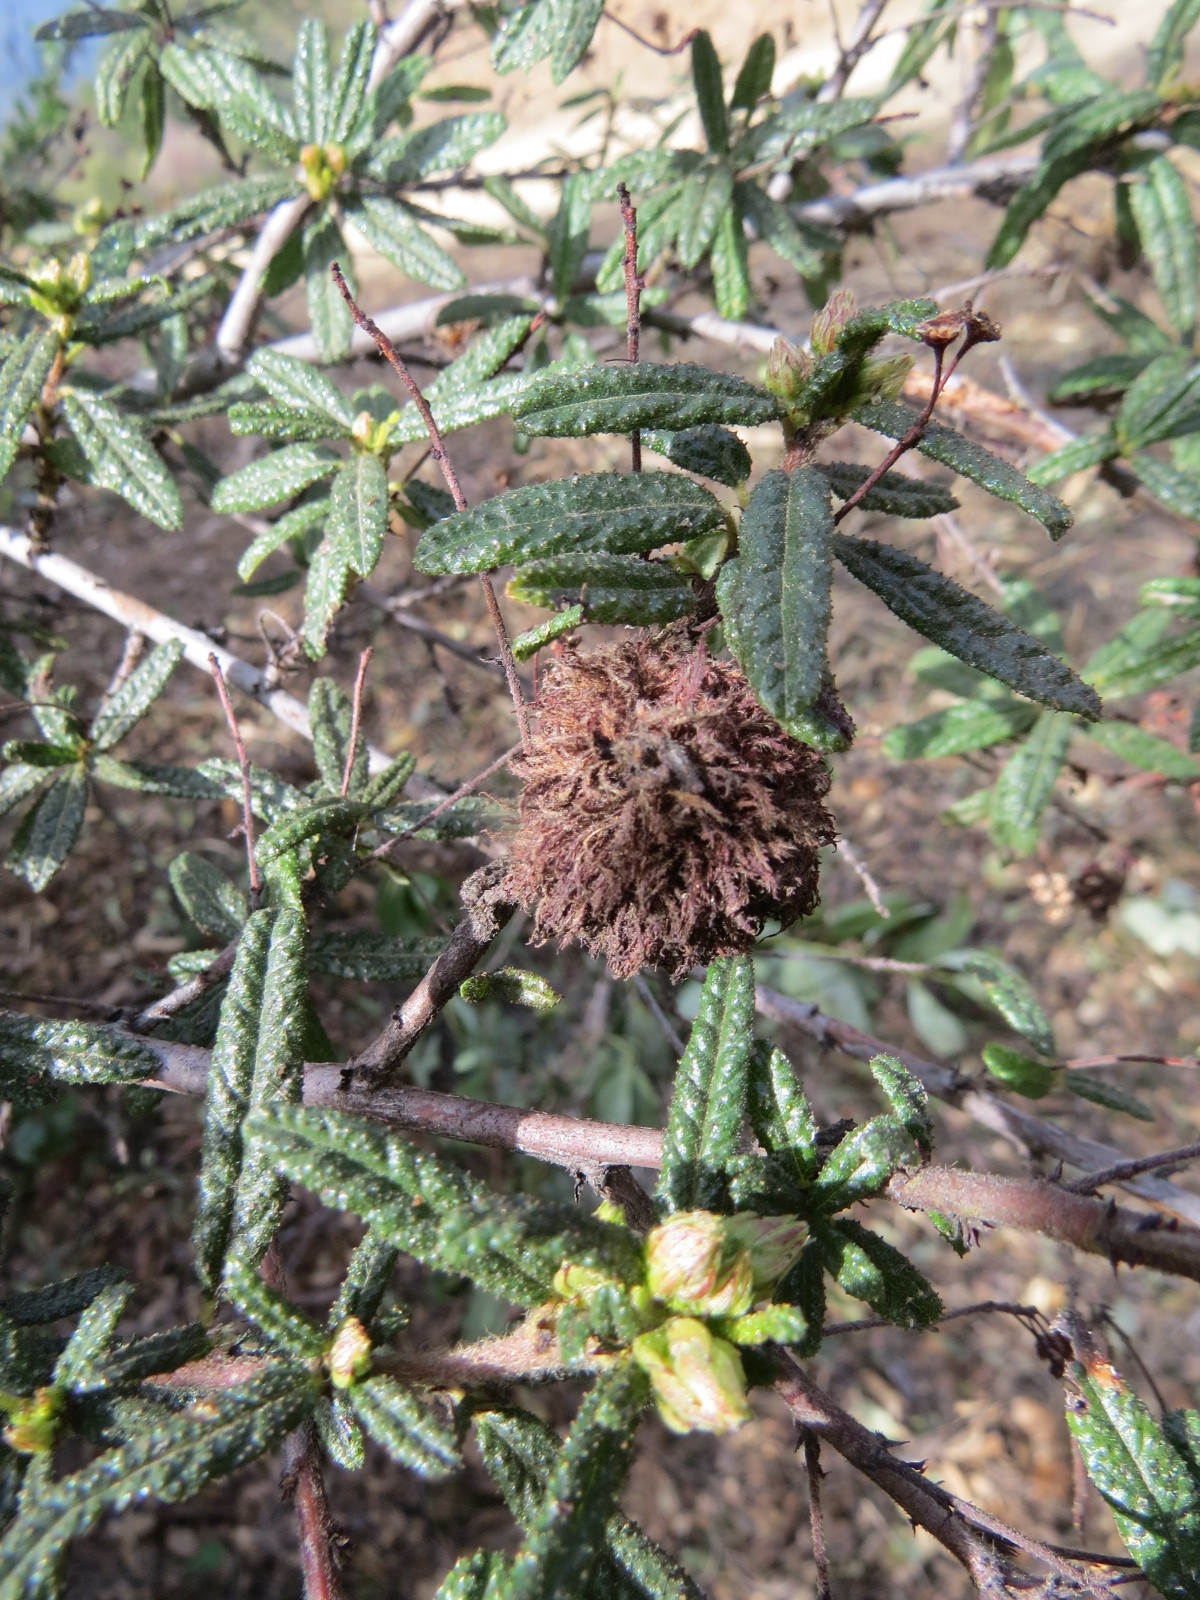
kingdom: Animalia
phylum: Arthropoda
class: Insecta
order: Diptera
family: Cecidomyiidae
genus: Asphondylia
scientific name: Asphondylia ceanothi
